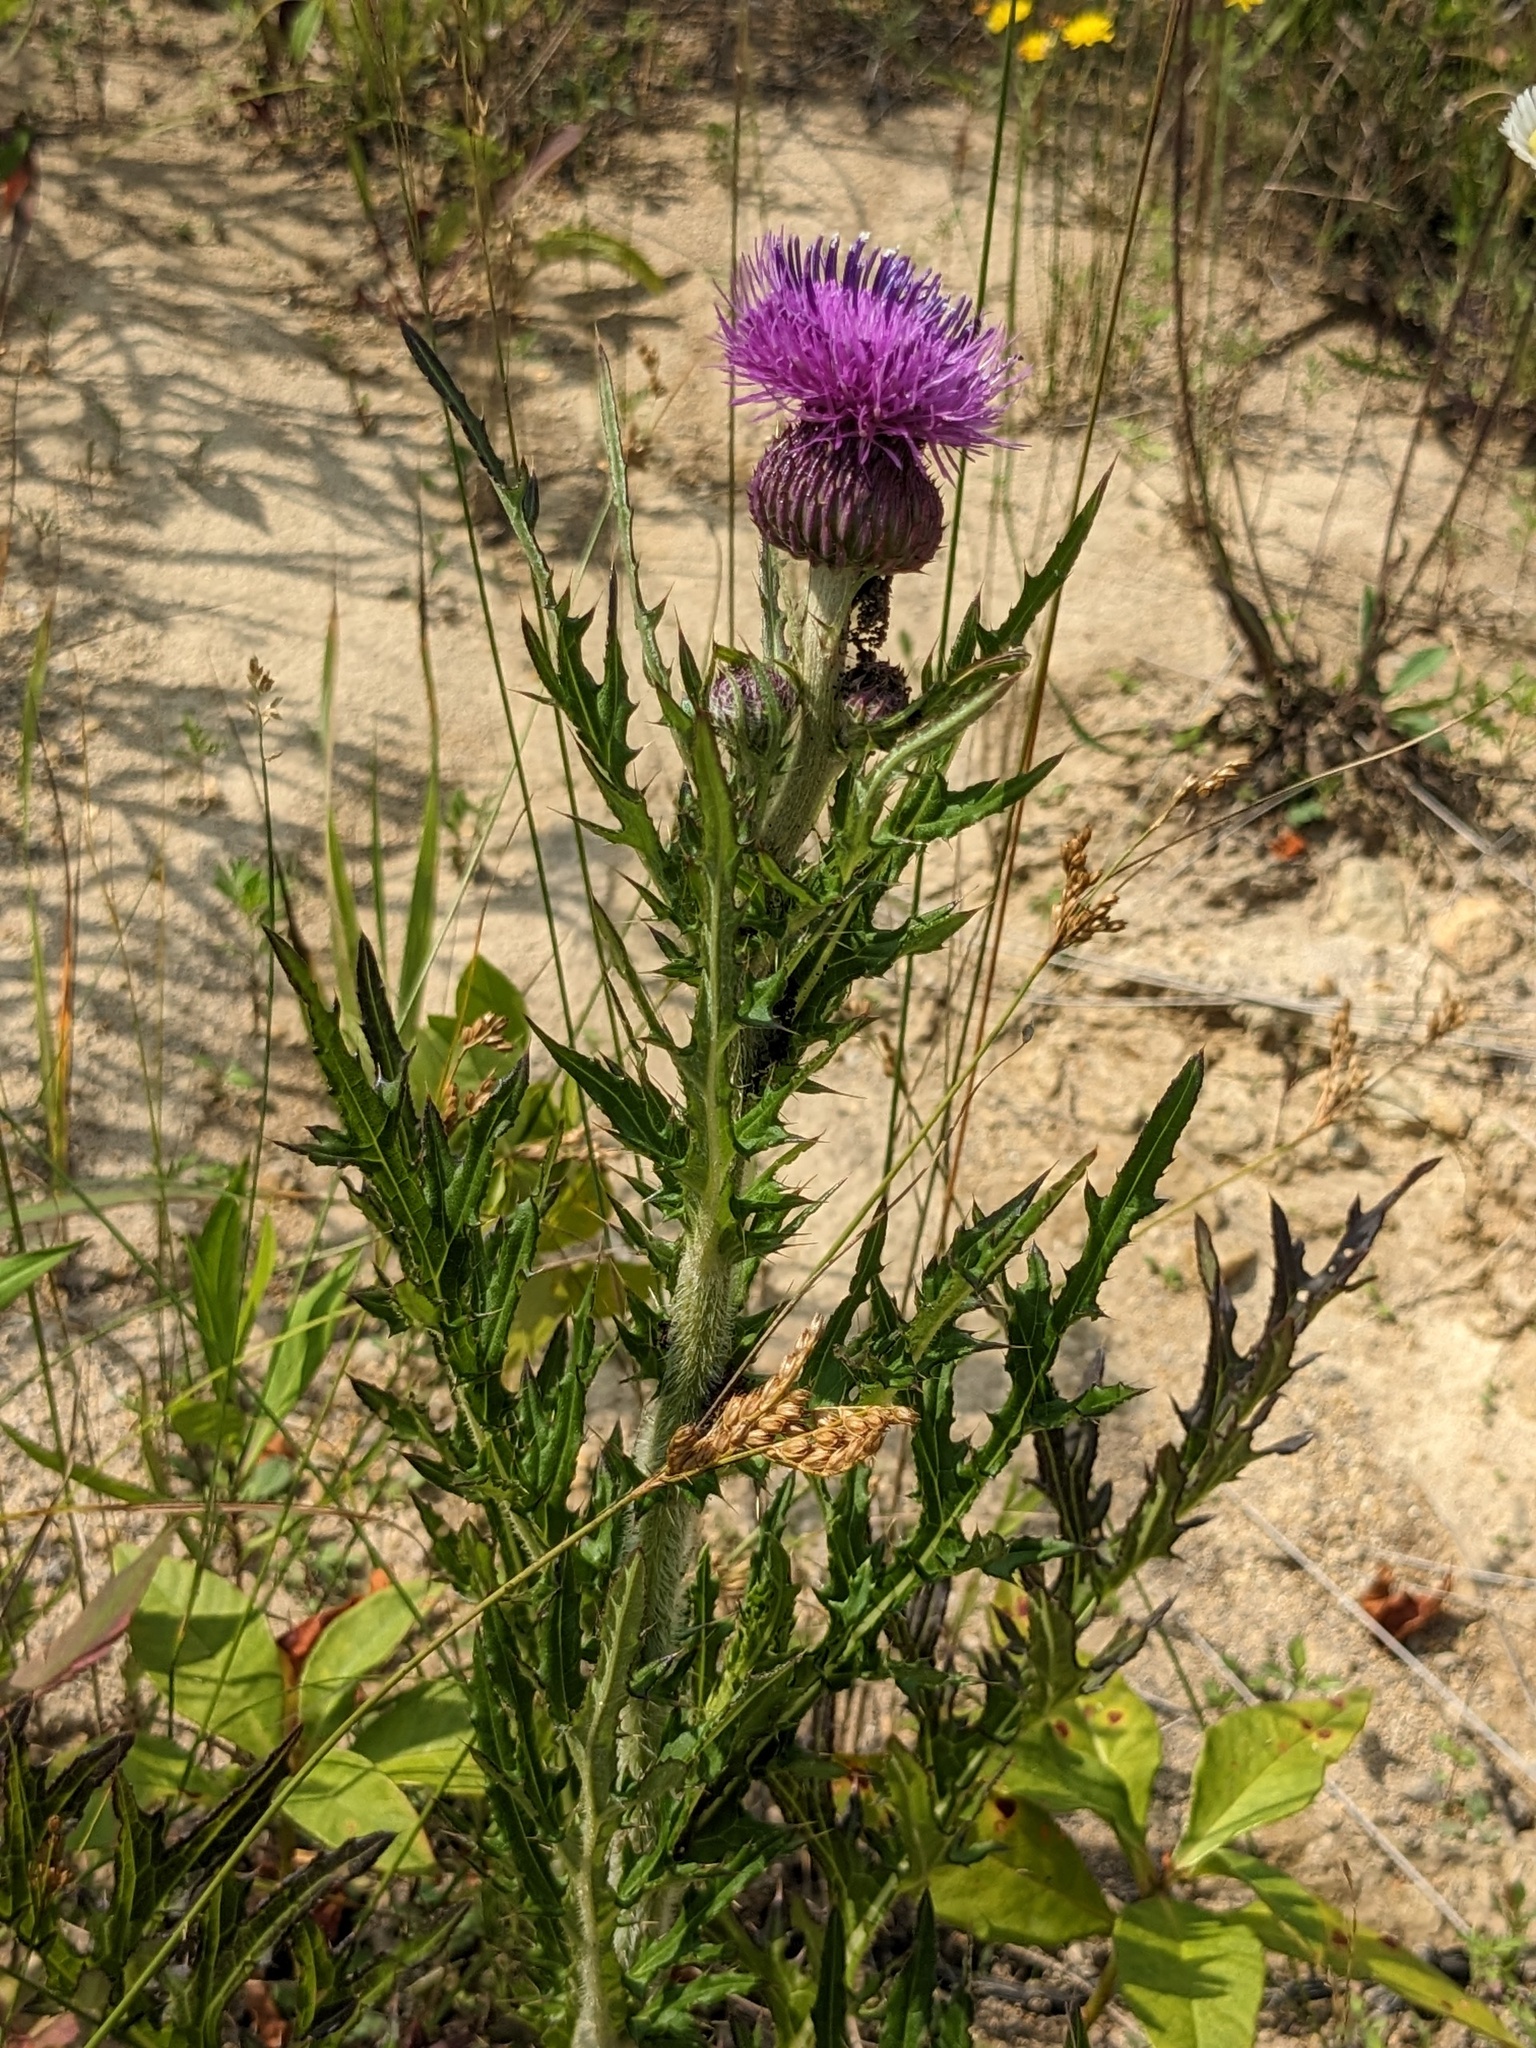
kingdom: Plantae
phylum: Tracheophyta
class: Magnoliopsida
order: Asterales
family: Asteraceae
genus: Cirsium
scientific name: Cirsium maackii
